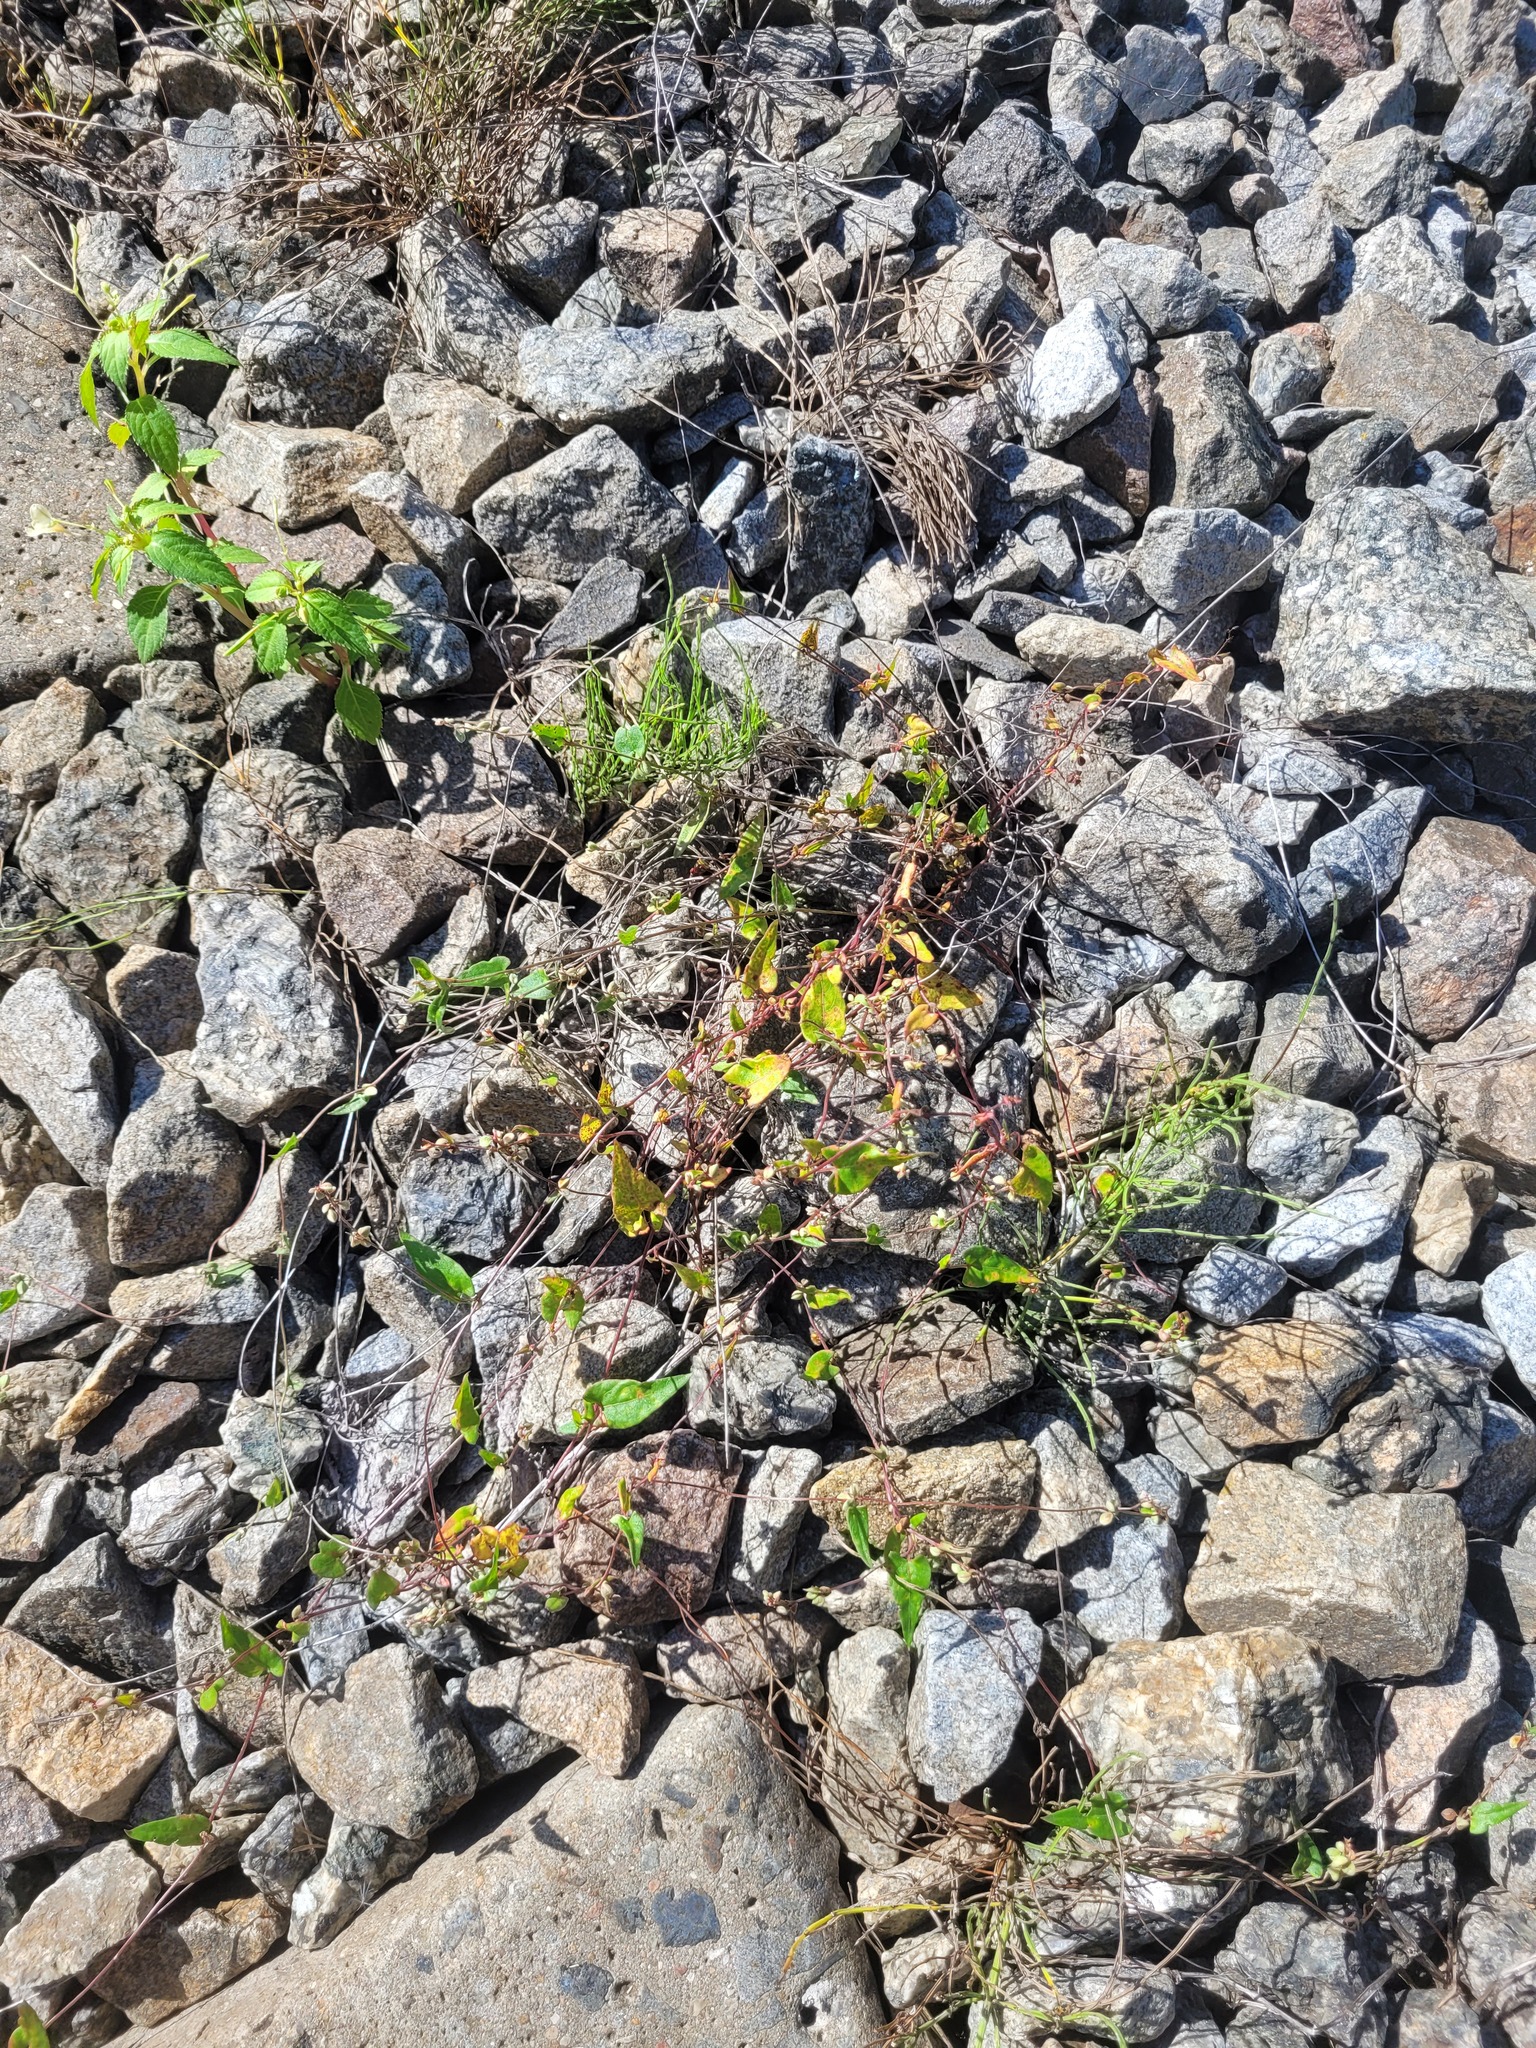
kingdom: Plantae
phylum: Tracheophyta
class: Magnoliopsida
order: Caryophyllales
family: Polygonaceae
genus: Fallopia
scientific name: Fallopia convolvulus
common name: Black bindweed
